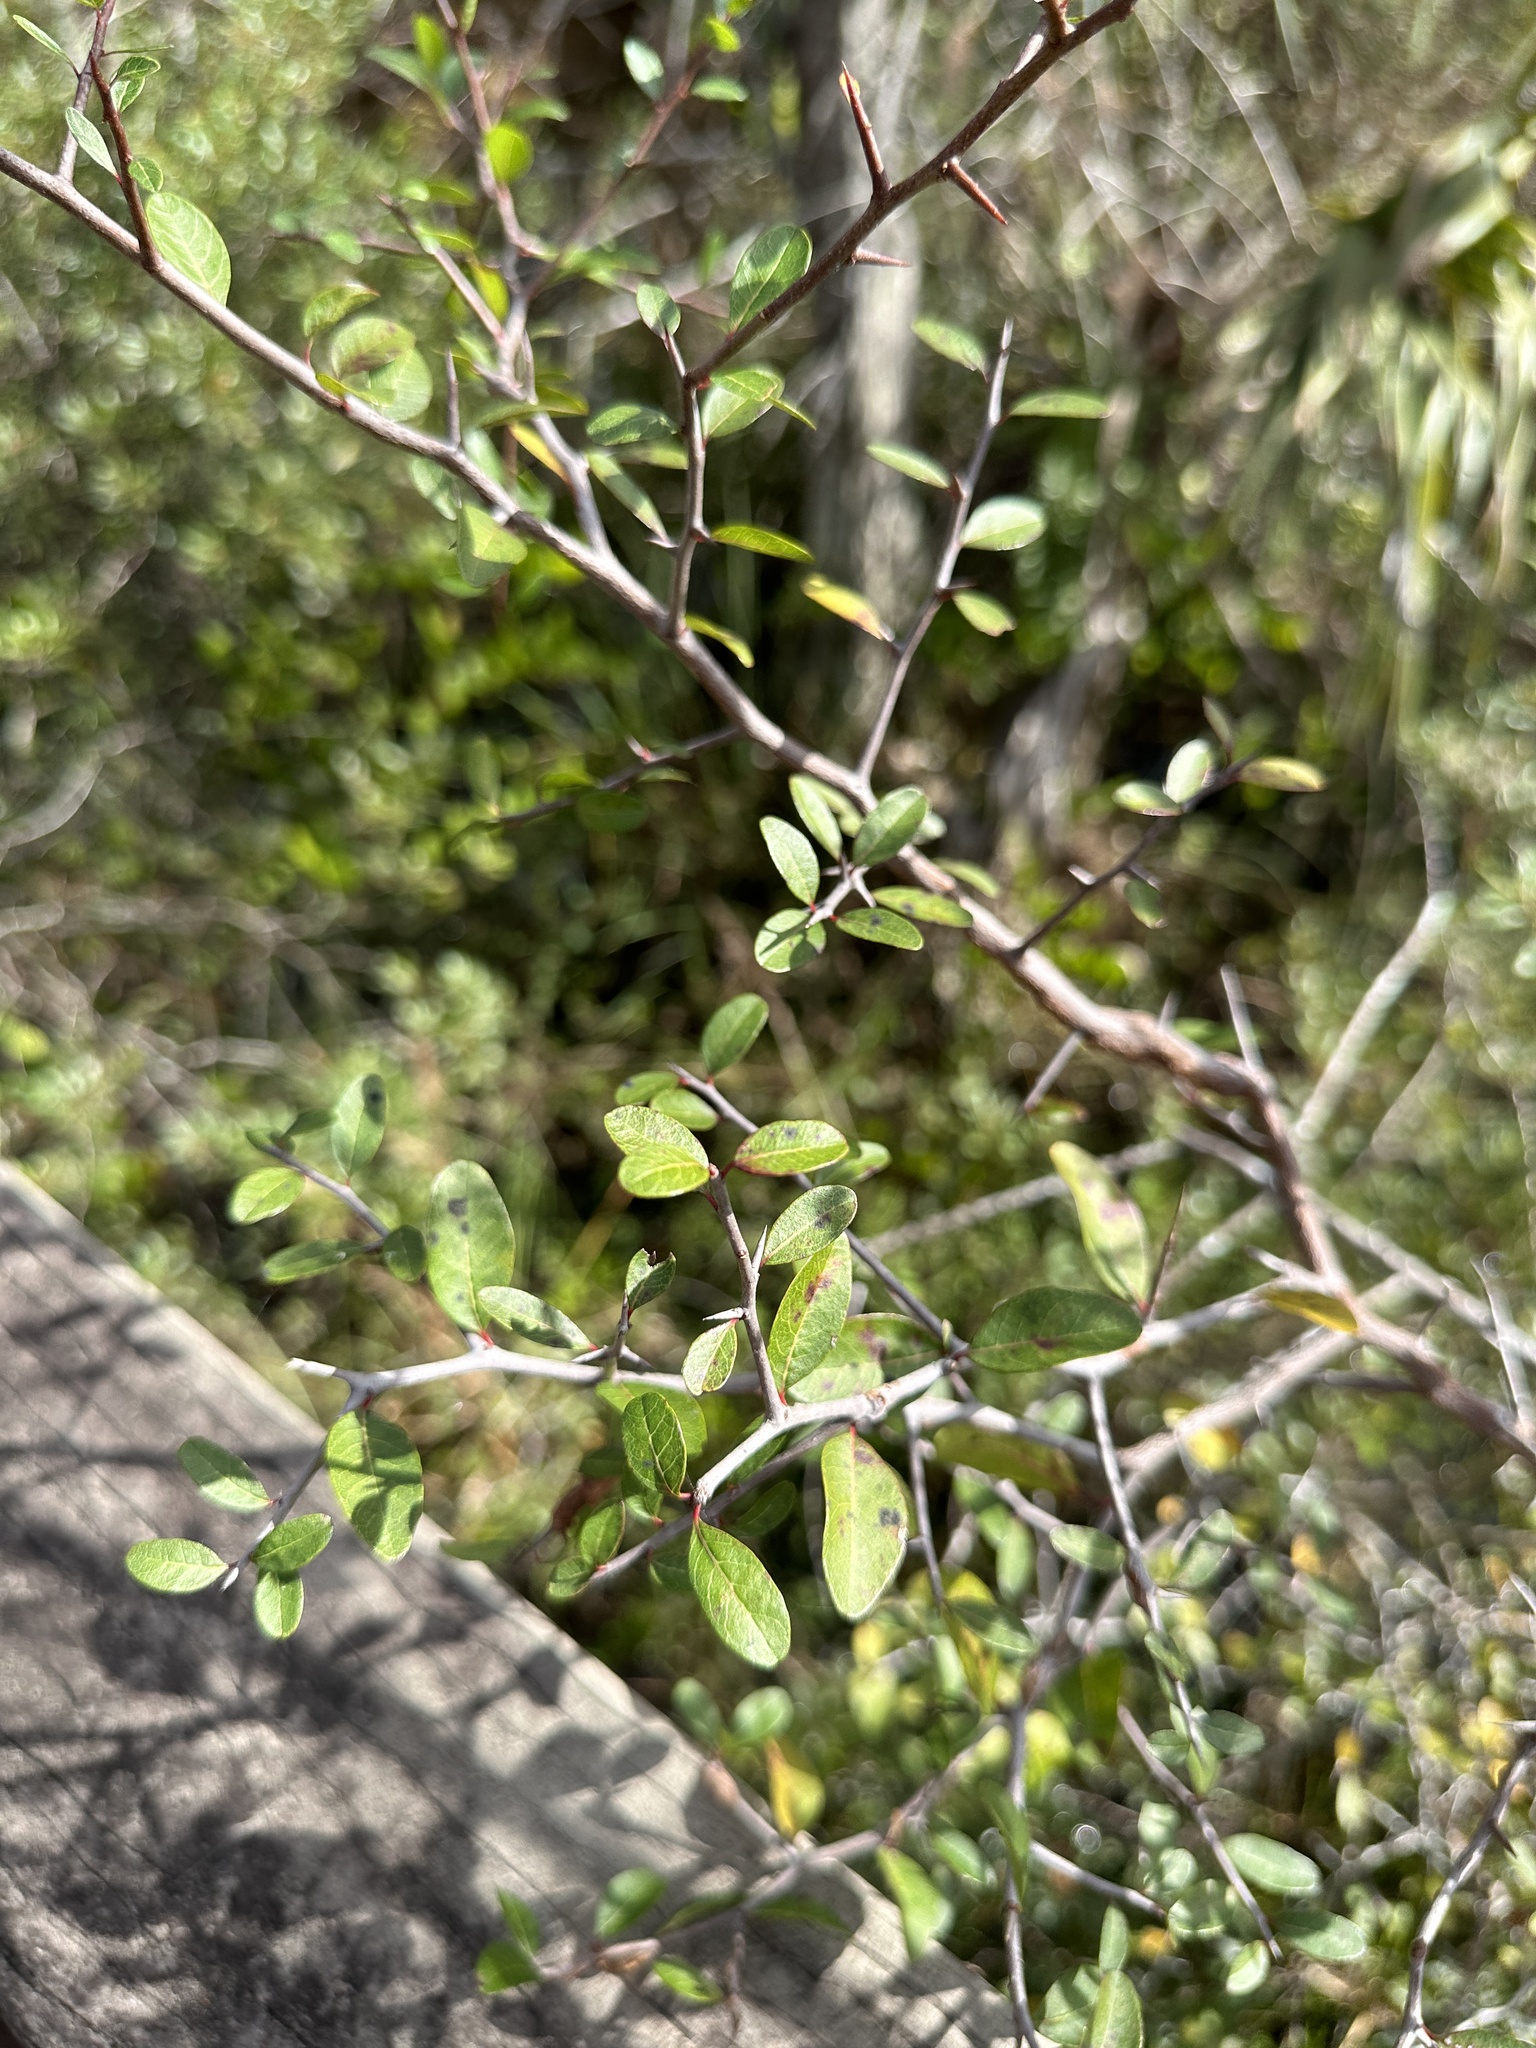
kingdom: Plantae
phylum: Tracheophyta
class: Magnoliopsida
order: Ericales
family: Sapotaceae
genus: Sideroxylon
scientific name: Sideroxylon reclinatum
